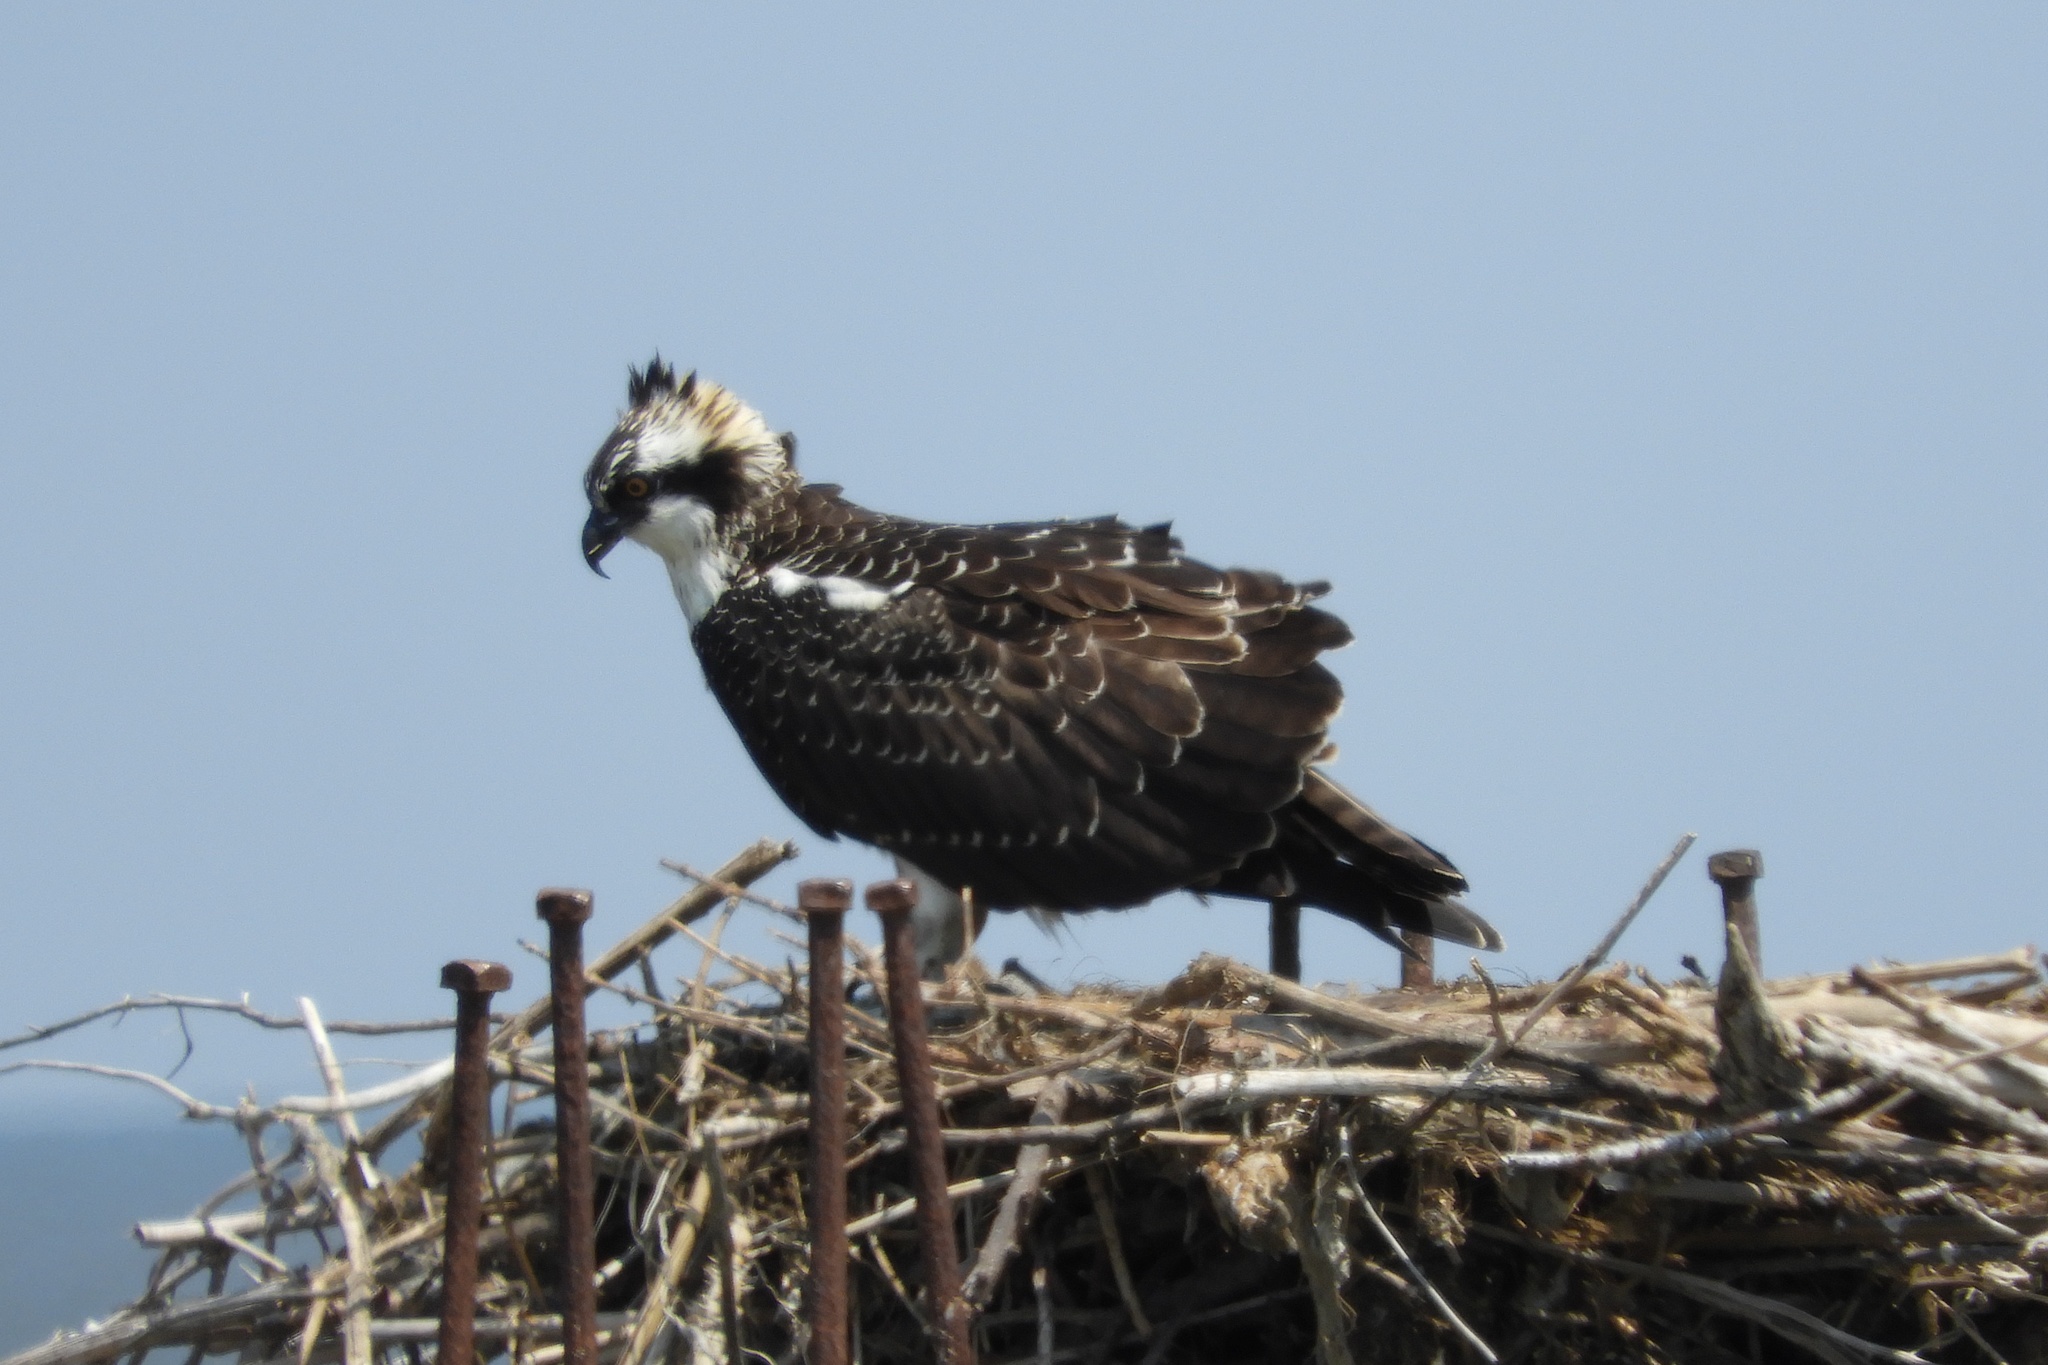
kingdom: Animalia
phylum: Chordata
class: Aves
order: Accipitriformes
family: Pandionidae
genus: Pandion
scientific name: Pandion haliaetus
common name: Osprey
